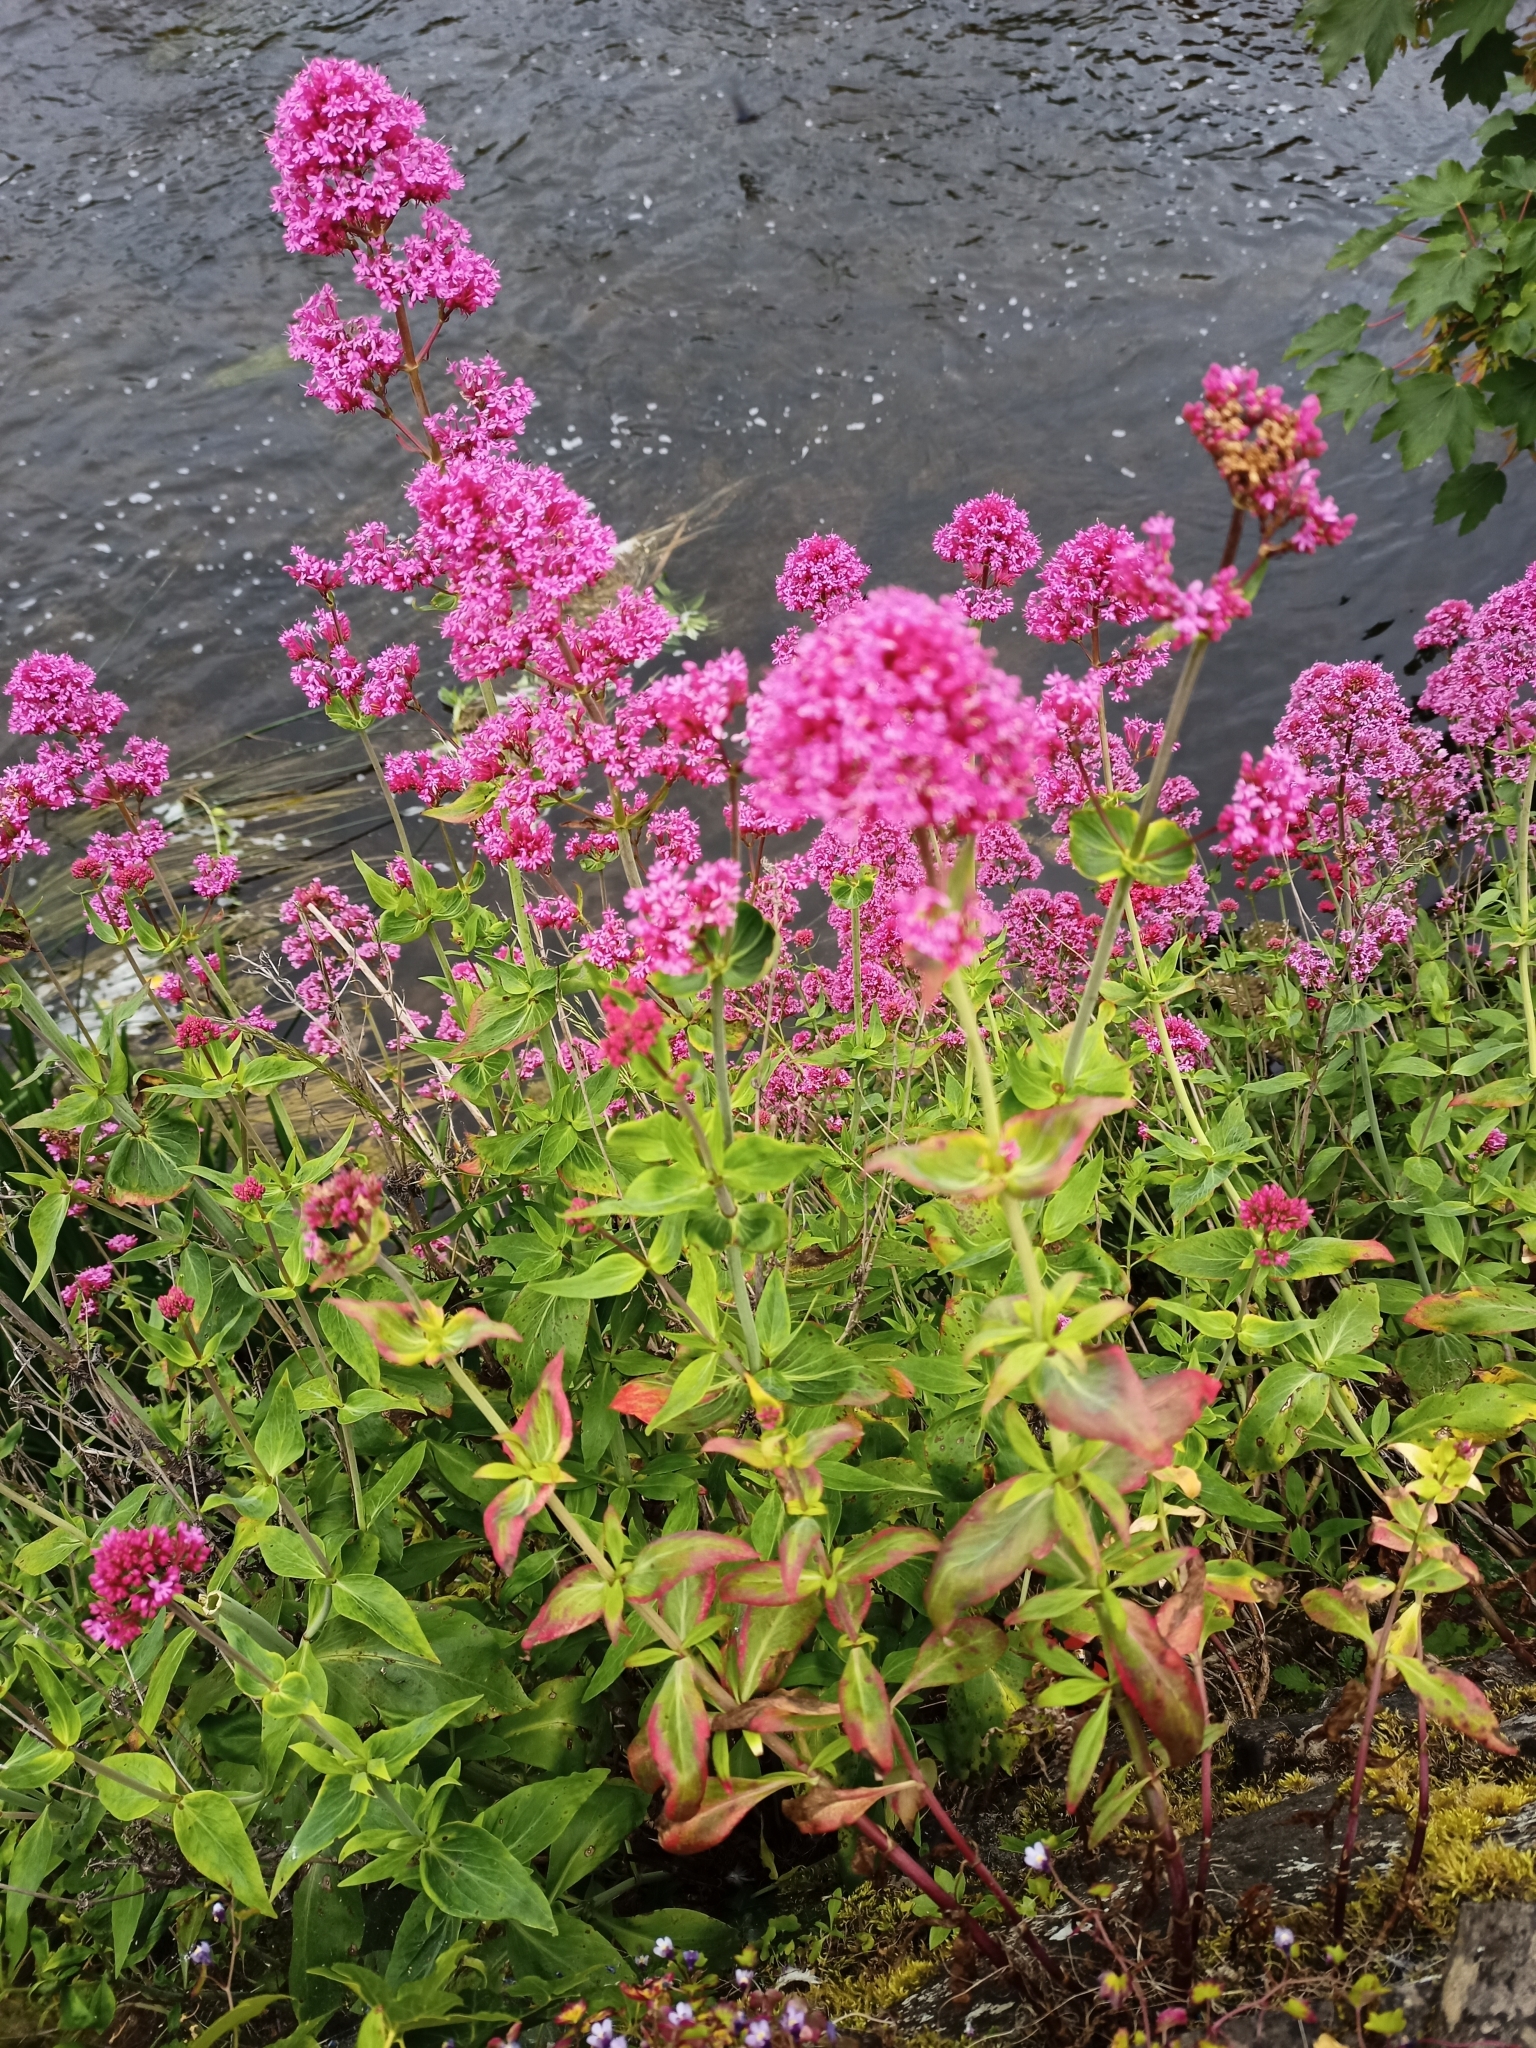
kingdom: Plantae
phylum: Tracheophyta
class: Magnoliopsida
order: Dipsacales
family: Caprifoliaceae
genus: Centranthus
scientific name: Centranthus ruber
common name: Red valerian
